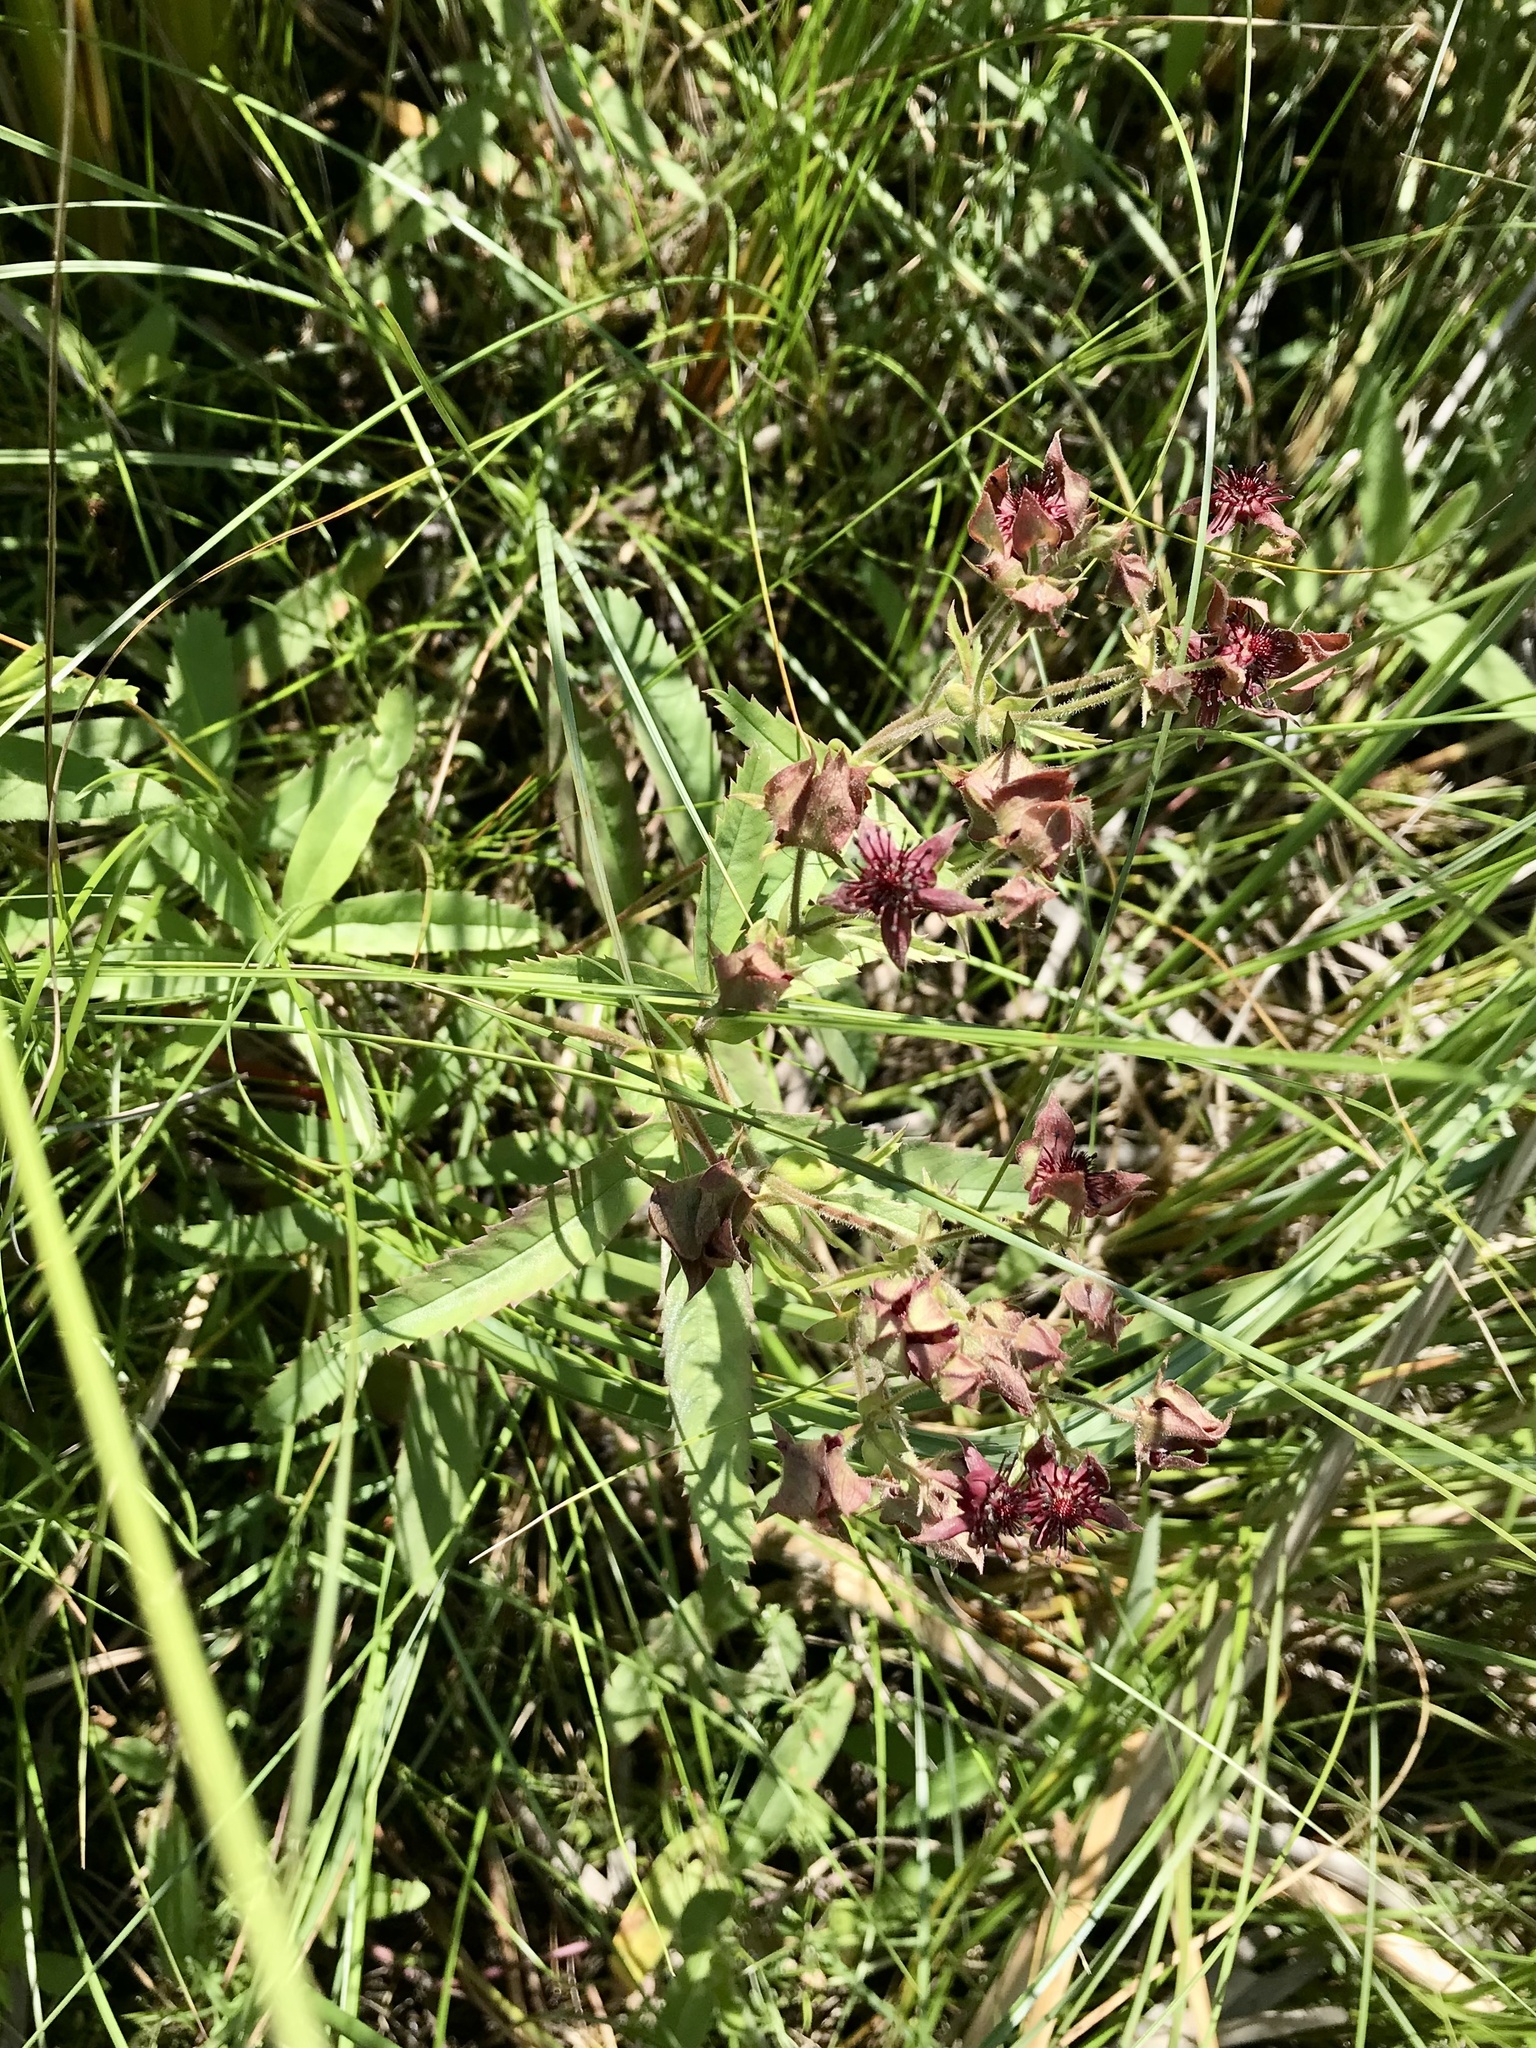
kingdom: Plantae
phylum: Tracheophyta
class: Magnoliopsida
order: Rosales
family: Rosaceae
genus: Comarum
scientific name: Comarum palustre
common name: Marsh cinquefoil
